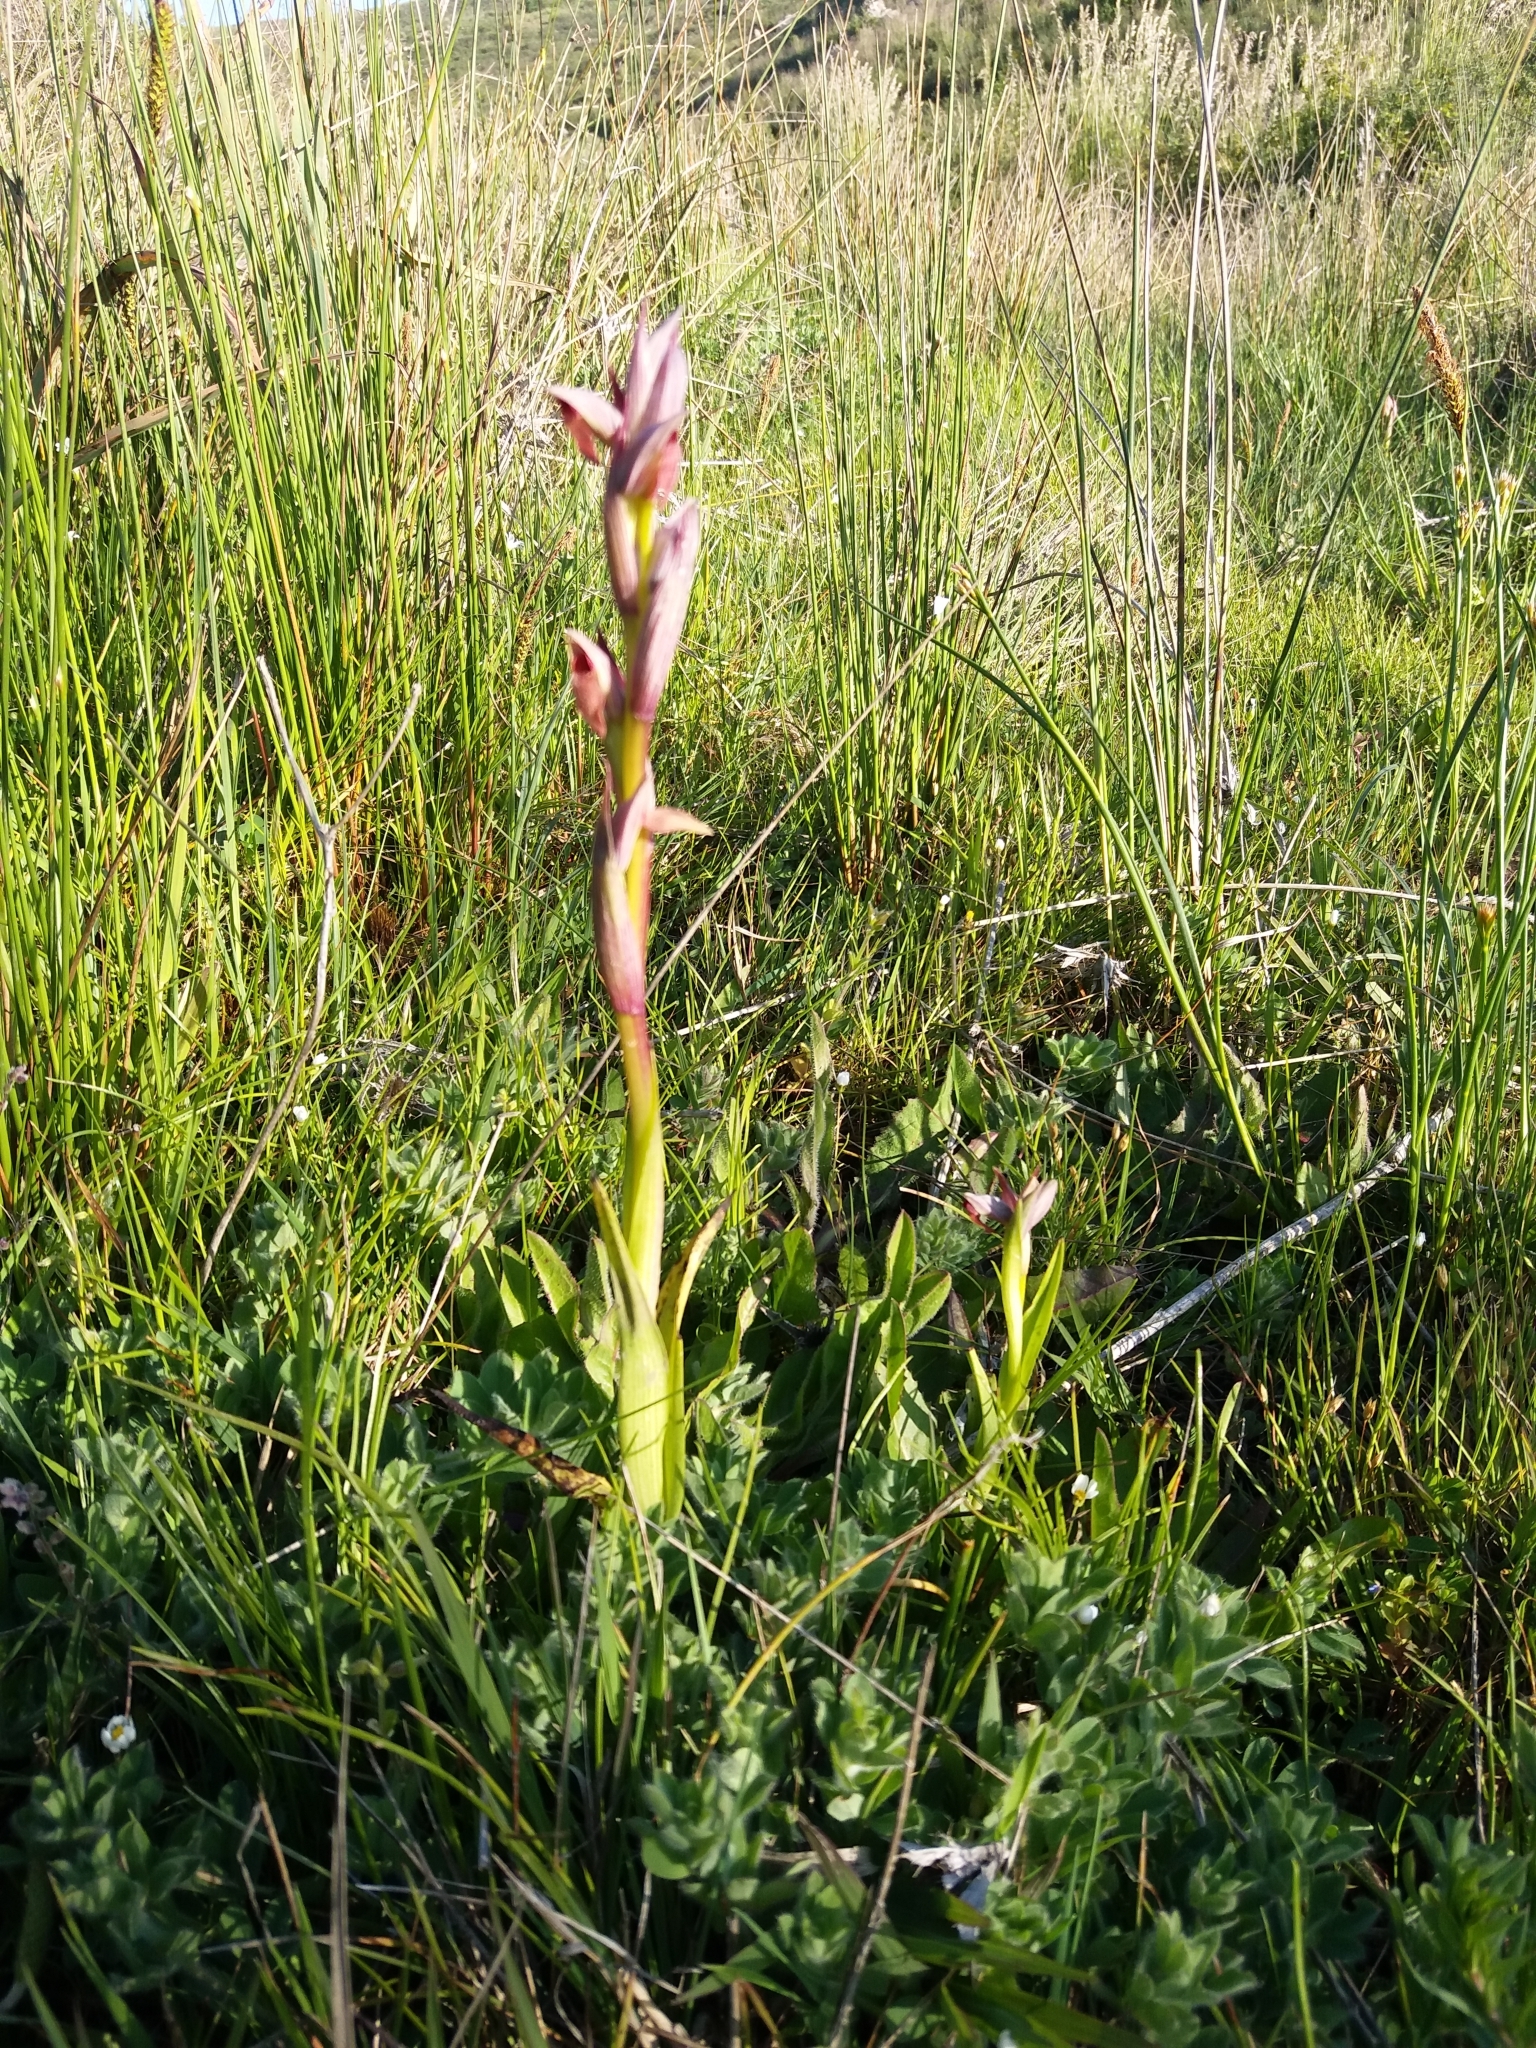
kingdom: Plantae
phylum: Tracheophyta
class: Liliopsida
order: Asparagales
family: Orchidaceae
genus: Serapias
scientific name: Serapias parviflora
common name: Small-flowered tongue-orchid
